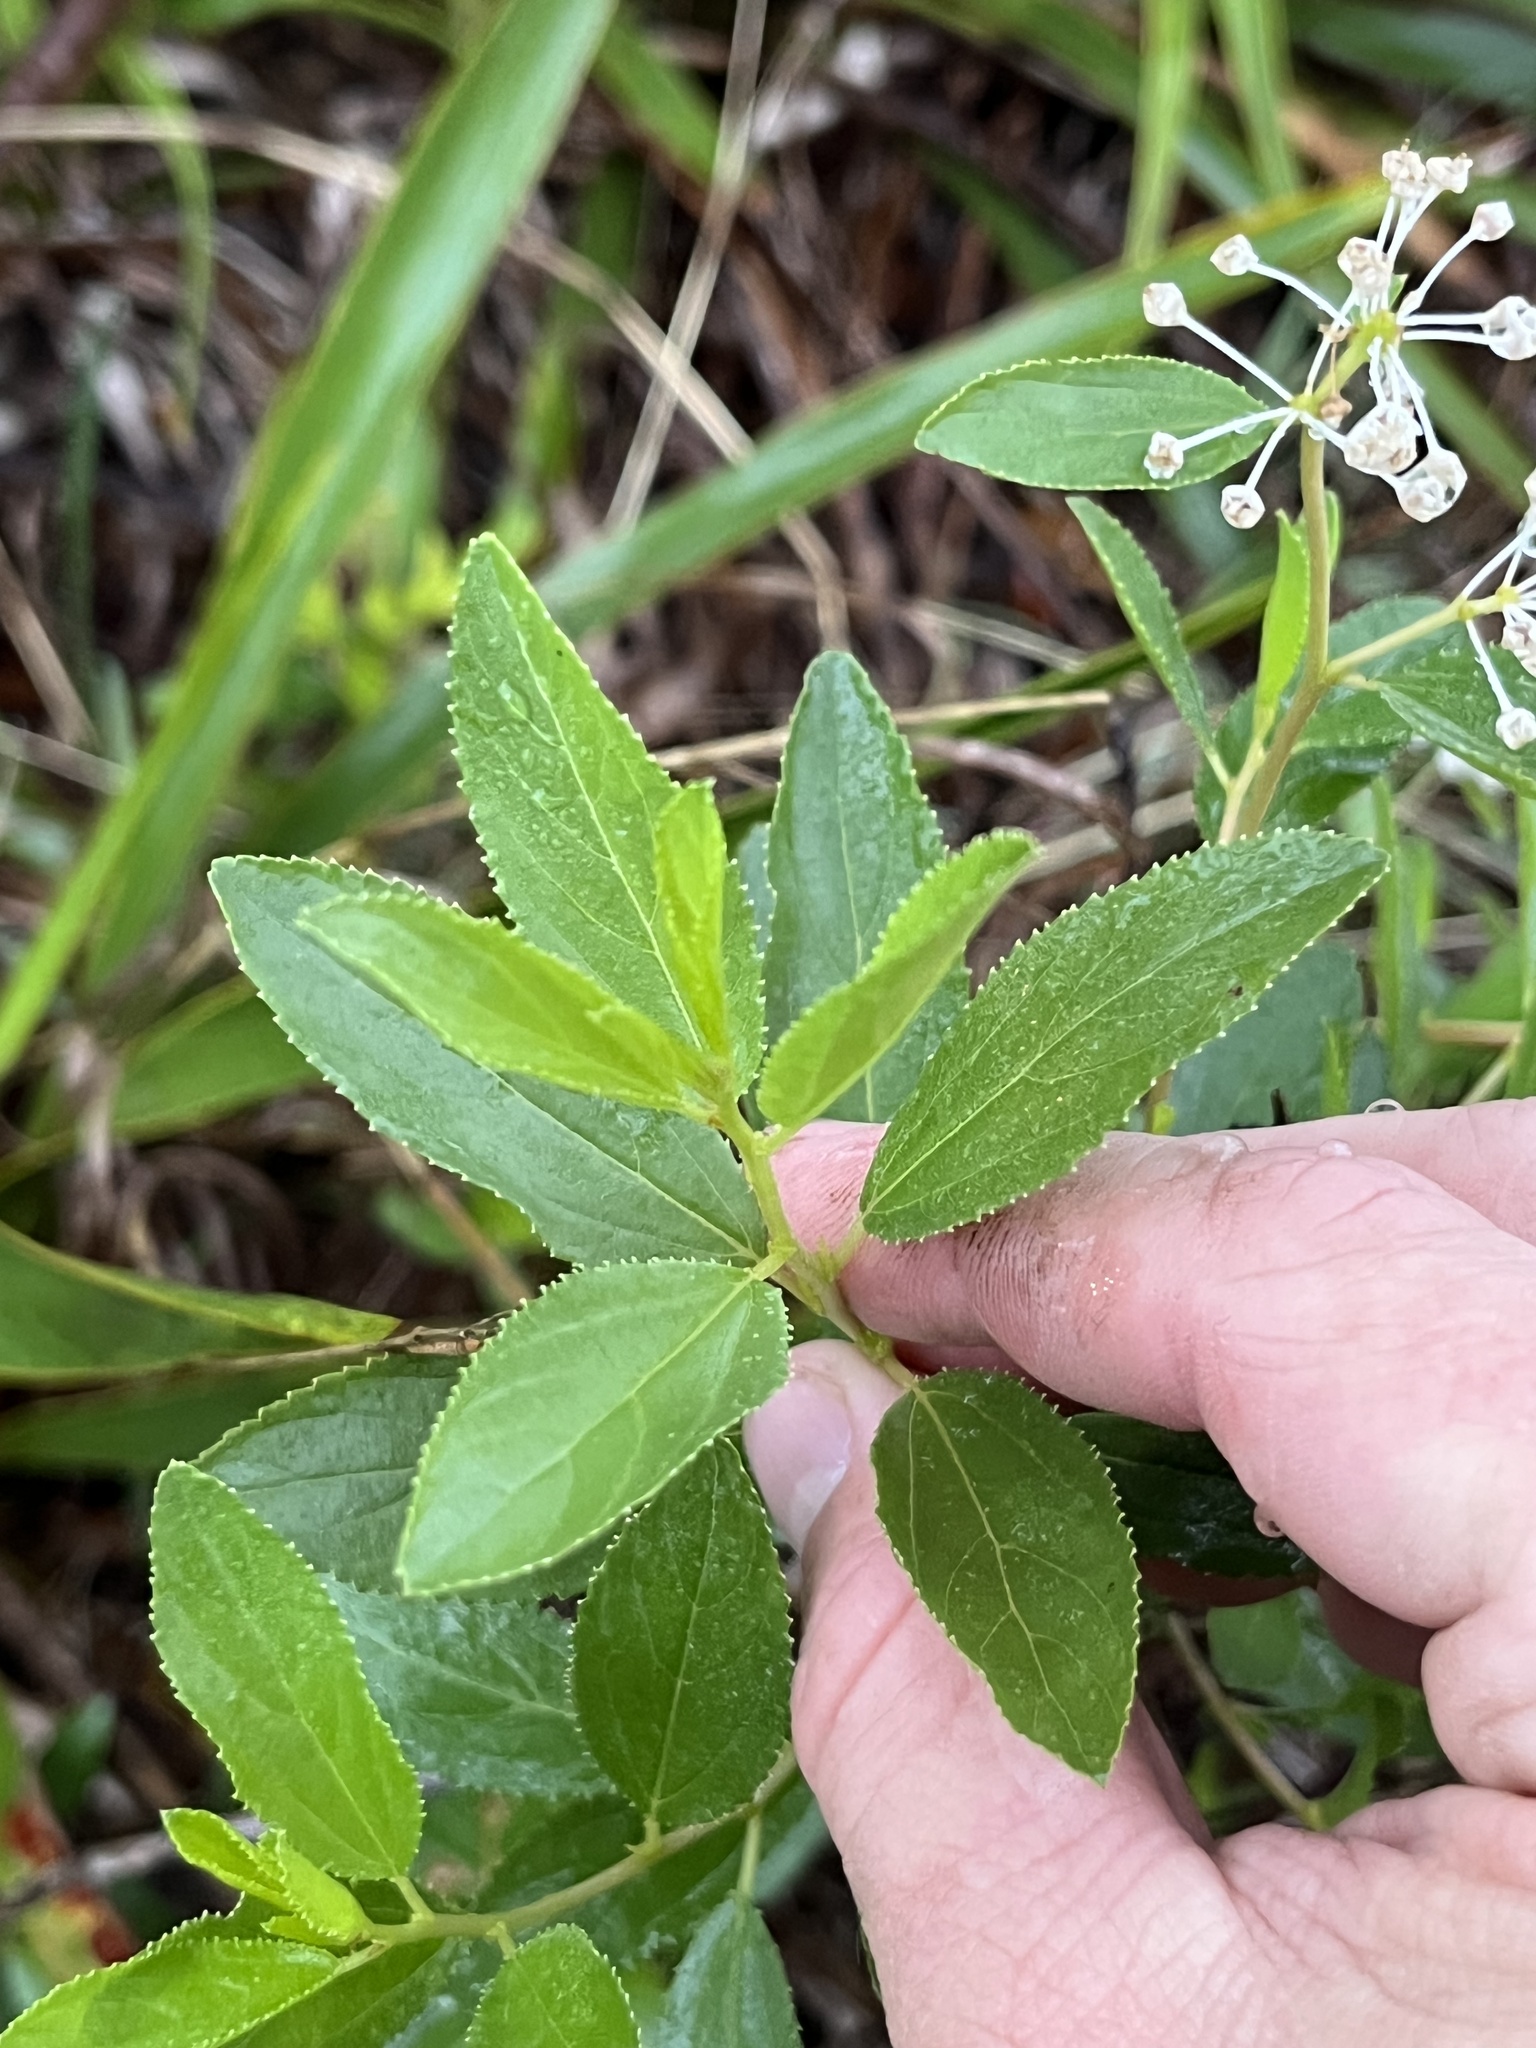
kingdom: Plantae
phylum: Tracheophyta
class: Magnoliopsida
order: Rosales
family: Rhamnaceae
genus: Ceanothus
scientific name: Ceanothus herbaceus
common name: Inland ceanothus
